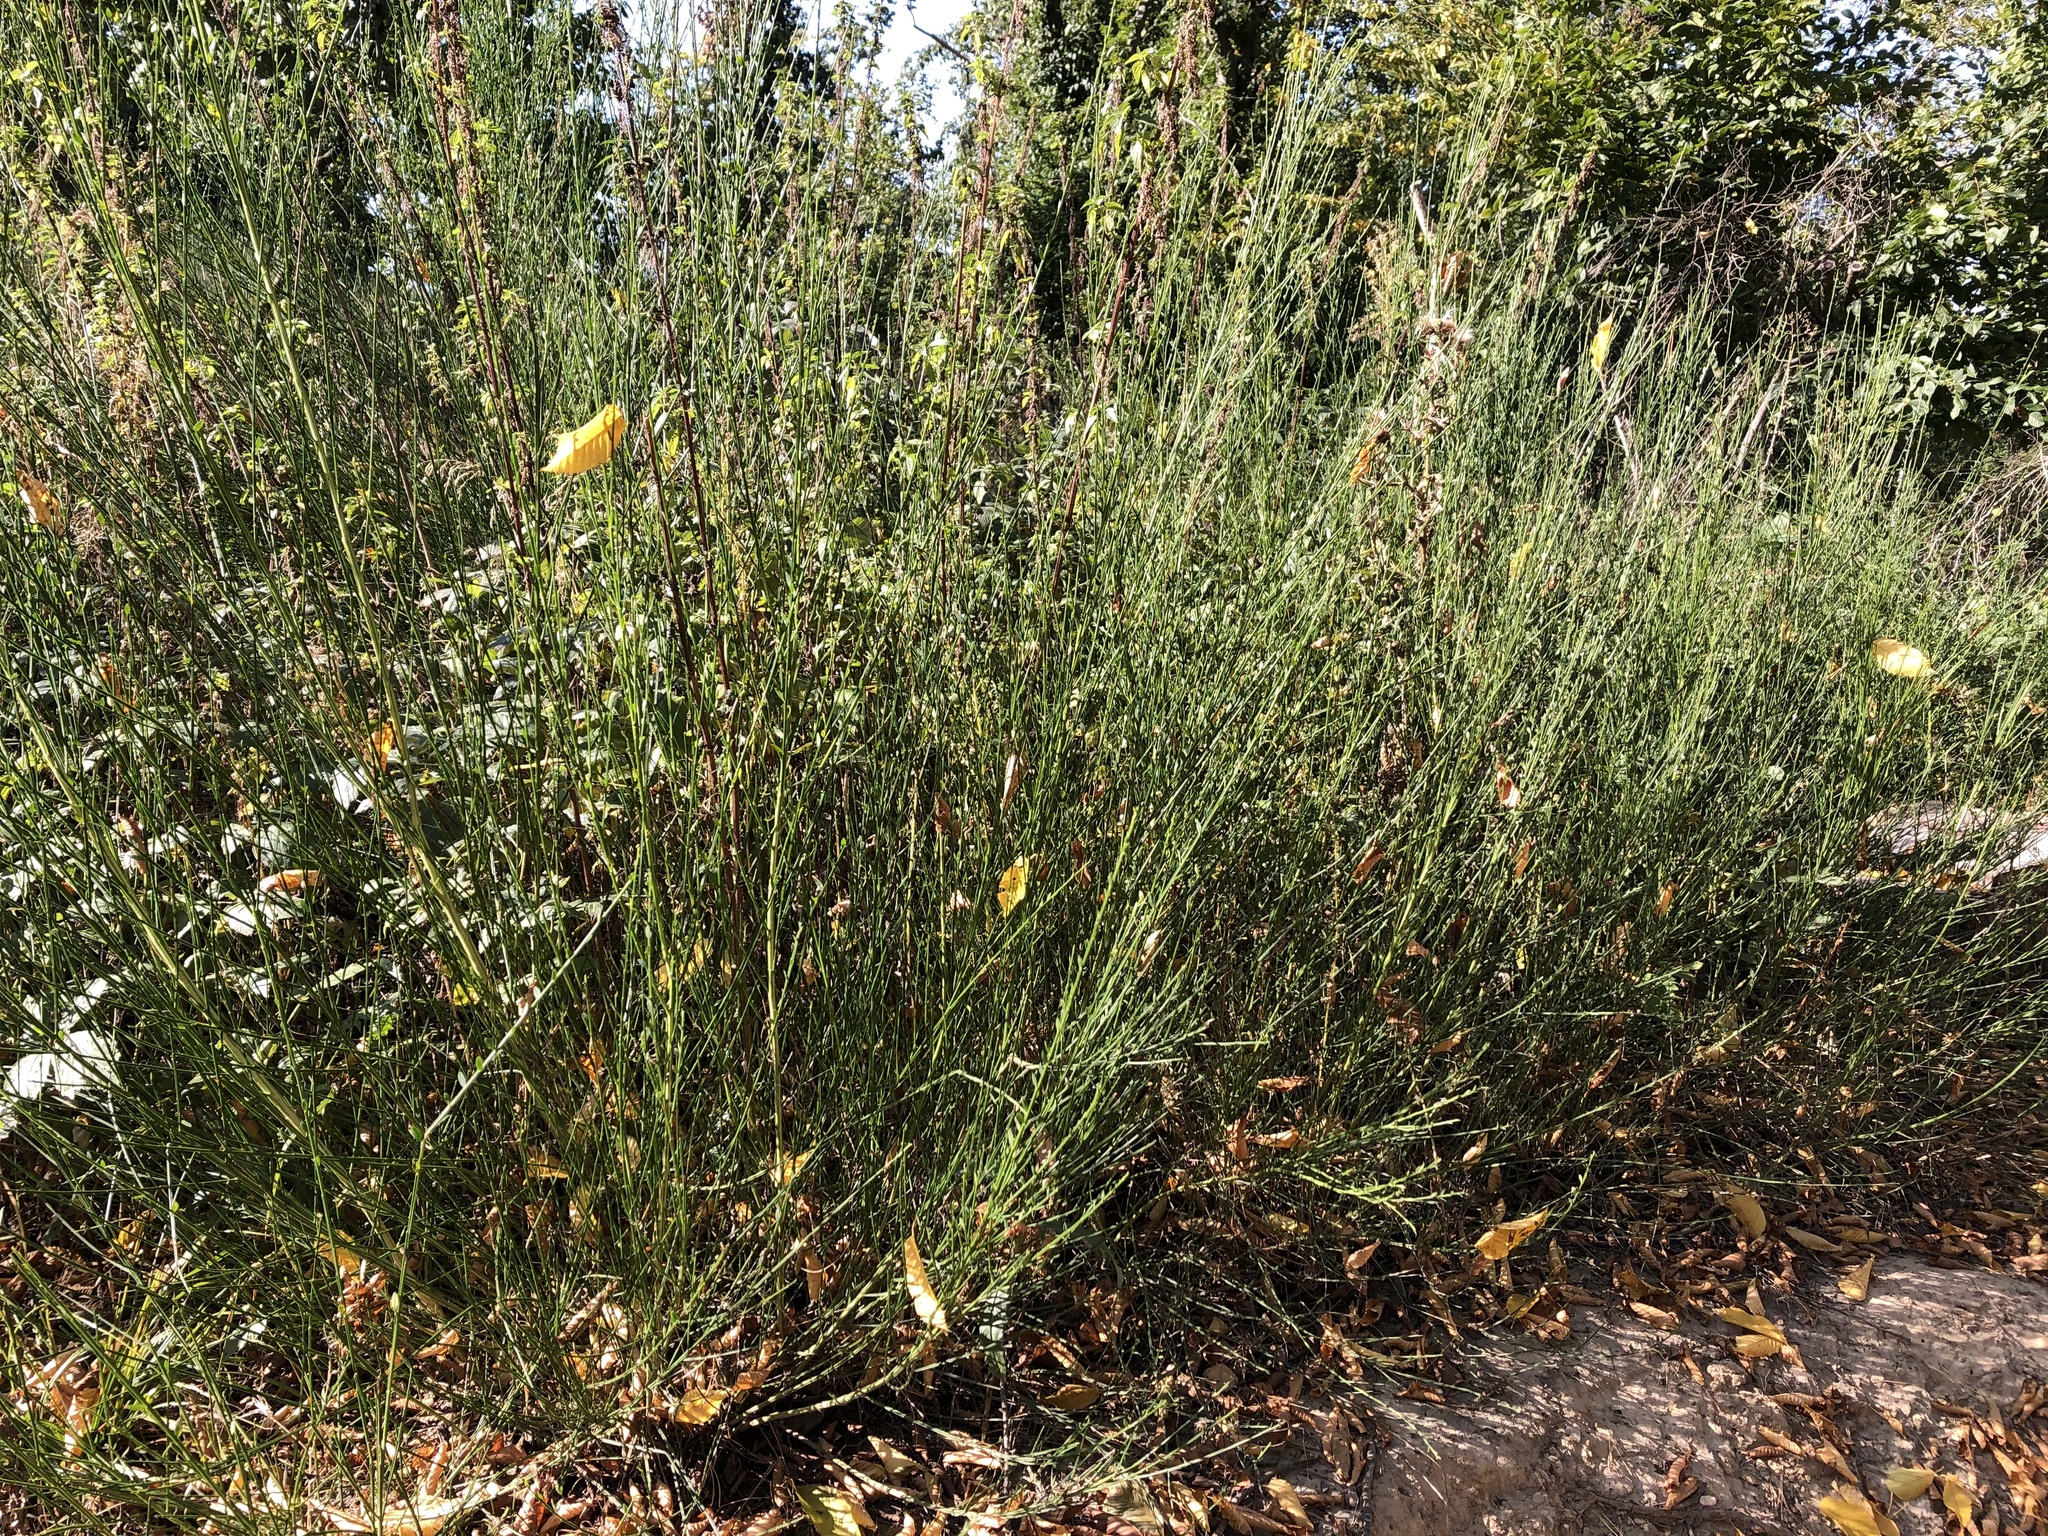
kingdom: Plantae
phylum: Tracheophyta
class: Magnoliopsida
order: Fabales
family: Fabaceae
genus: Cytisus
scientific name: Cytisus scoparius
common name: Scotch broom
